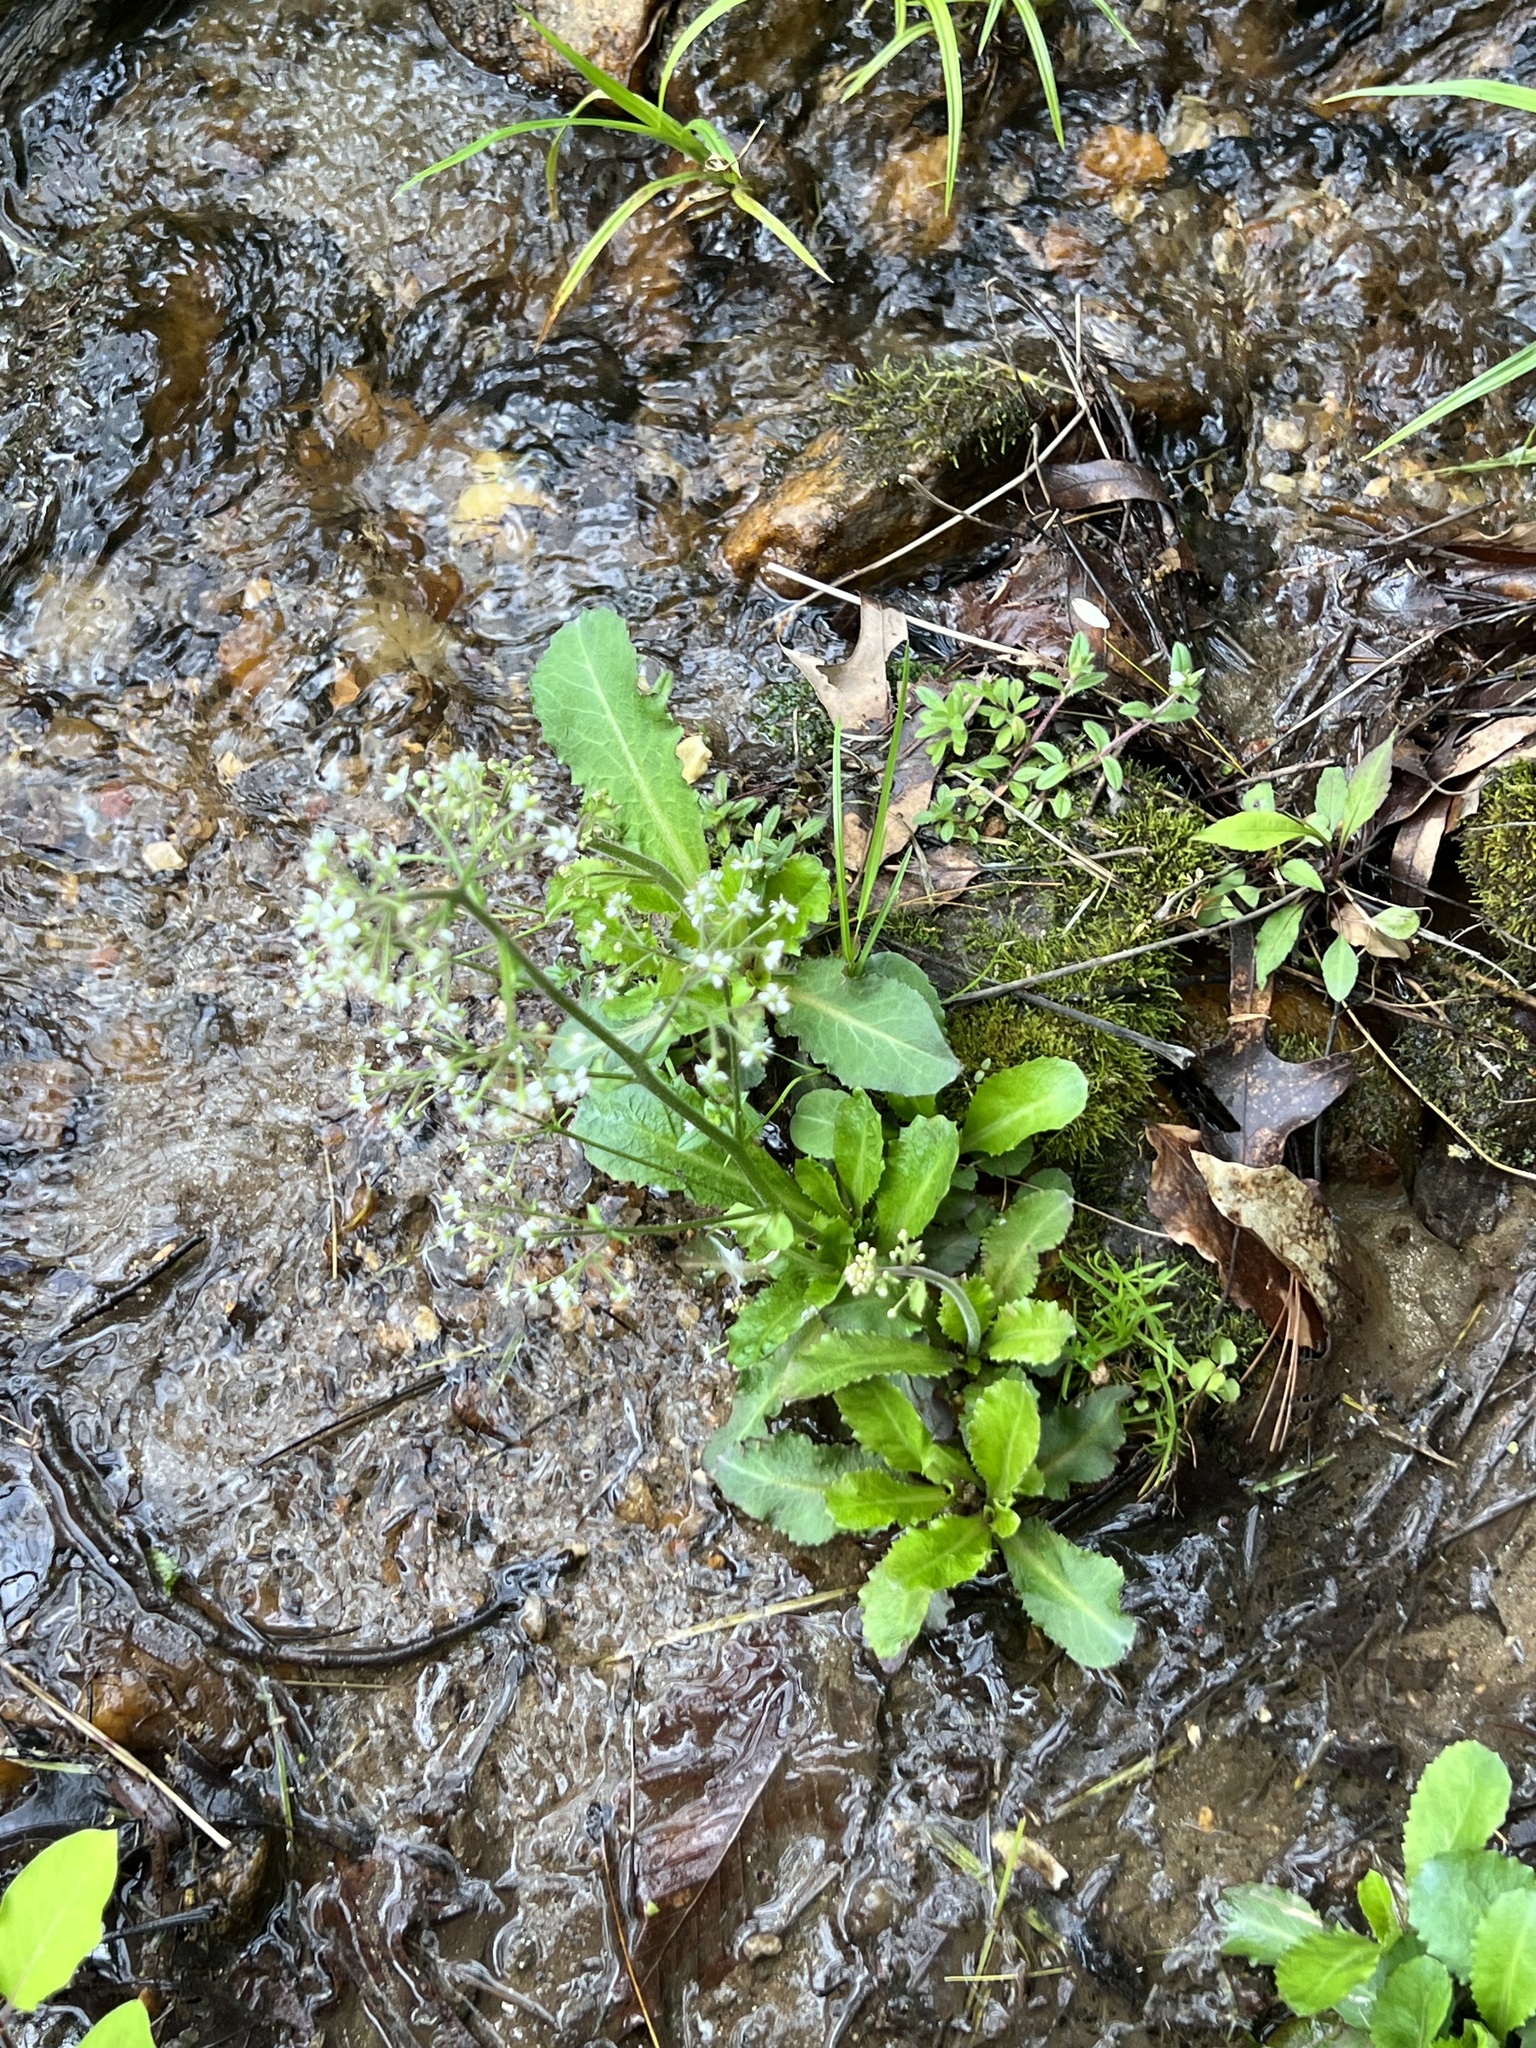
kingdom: Plantae
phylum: Tracheophyta
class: Magnoliopsida
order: Saxifragales
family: Saxifragaceae
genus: Micranthes
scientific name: Micranthes micranthidifolia
